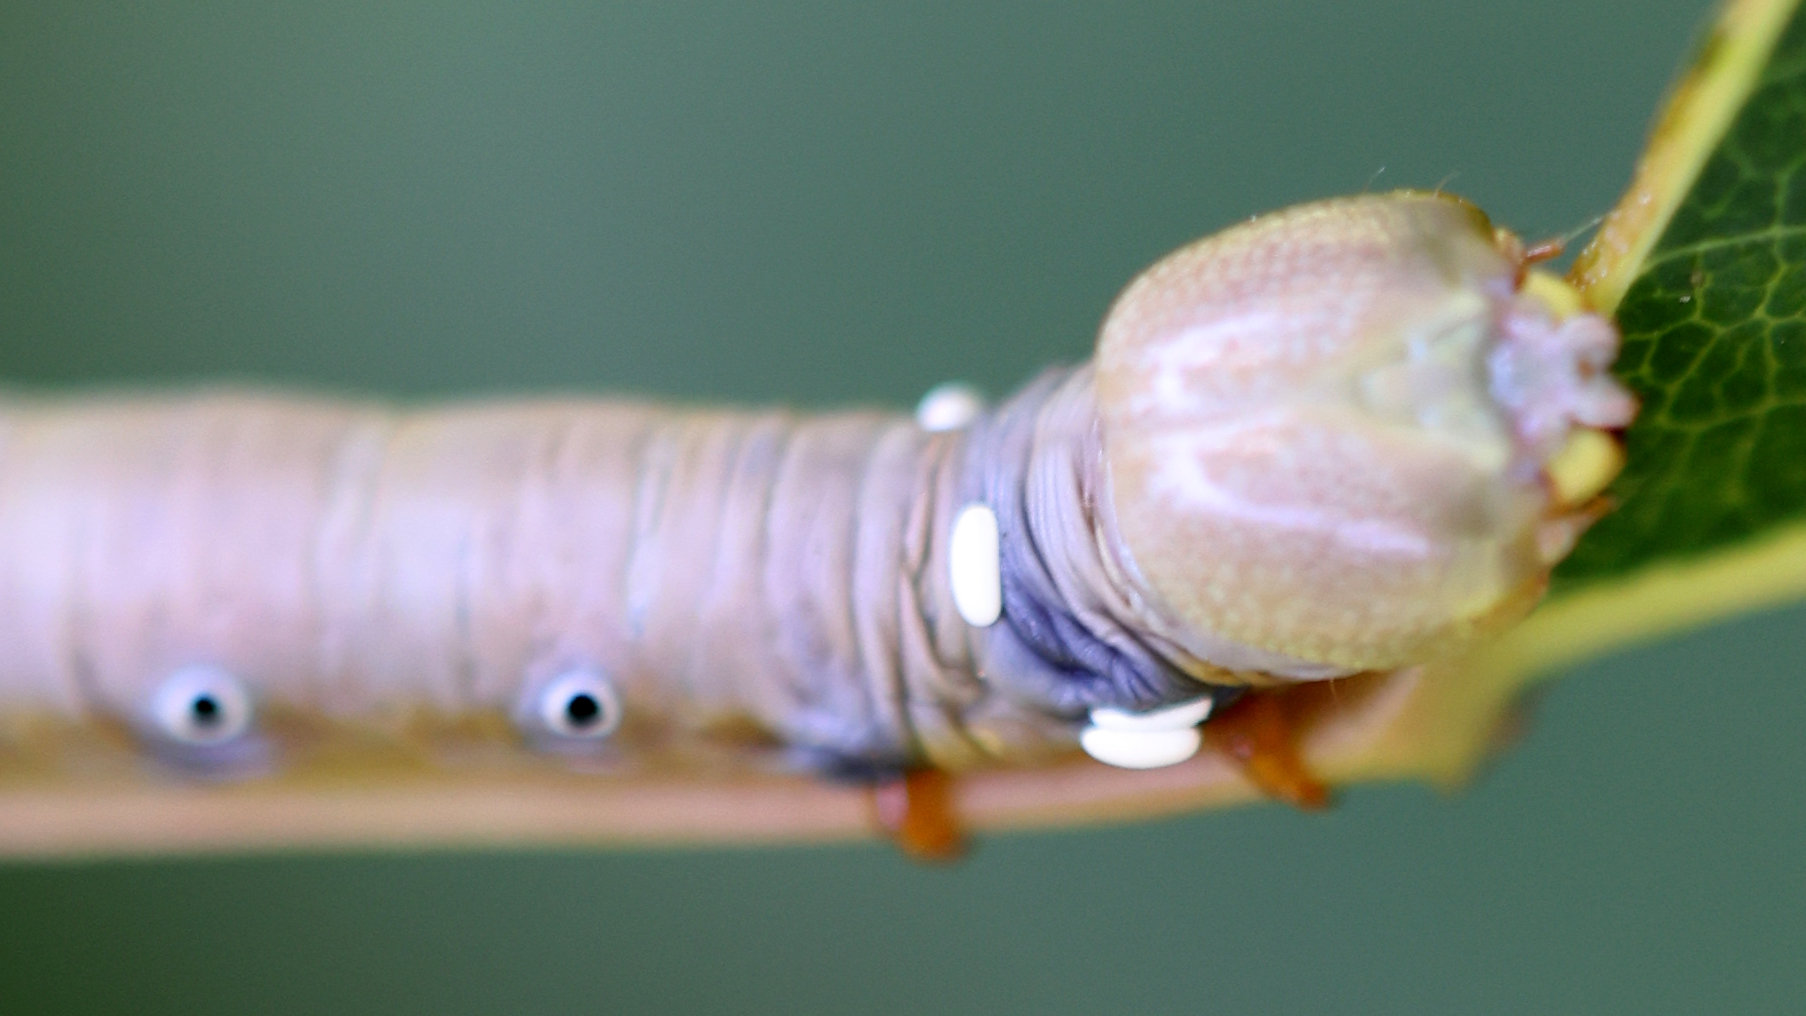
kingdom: Animalia
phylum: Arthropoda
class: Insecta
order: Lepidoptera
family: Notodontidae
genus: Pheosia
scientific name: Pheosia rimosa
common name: Black-rimmed prominent
